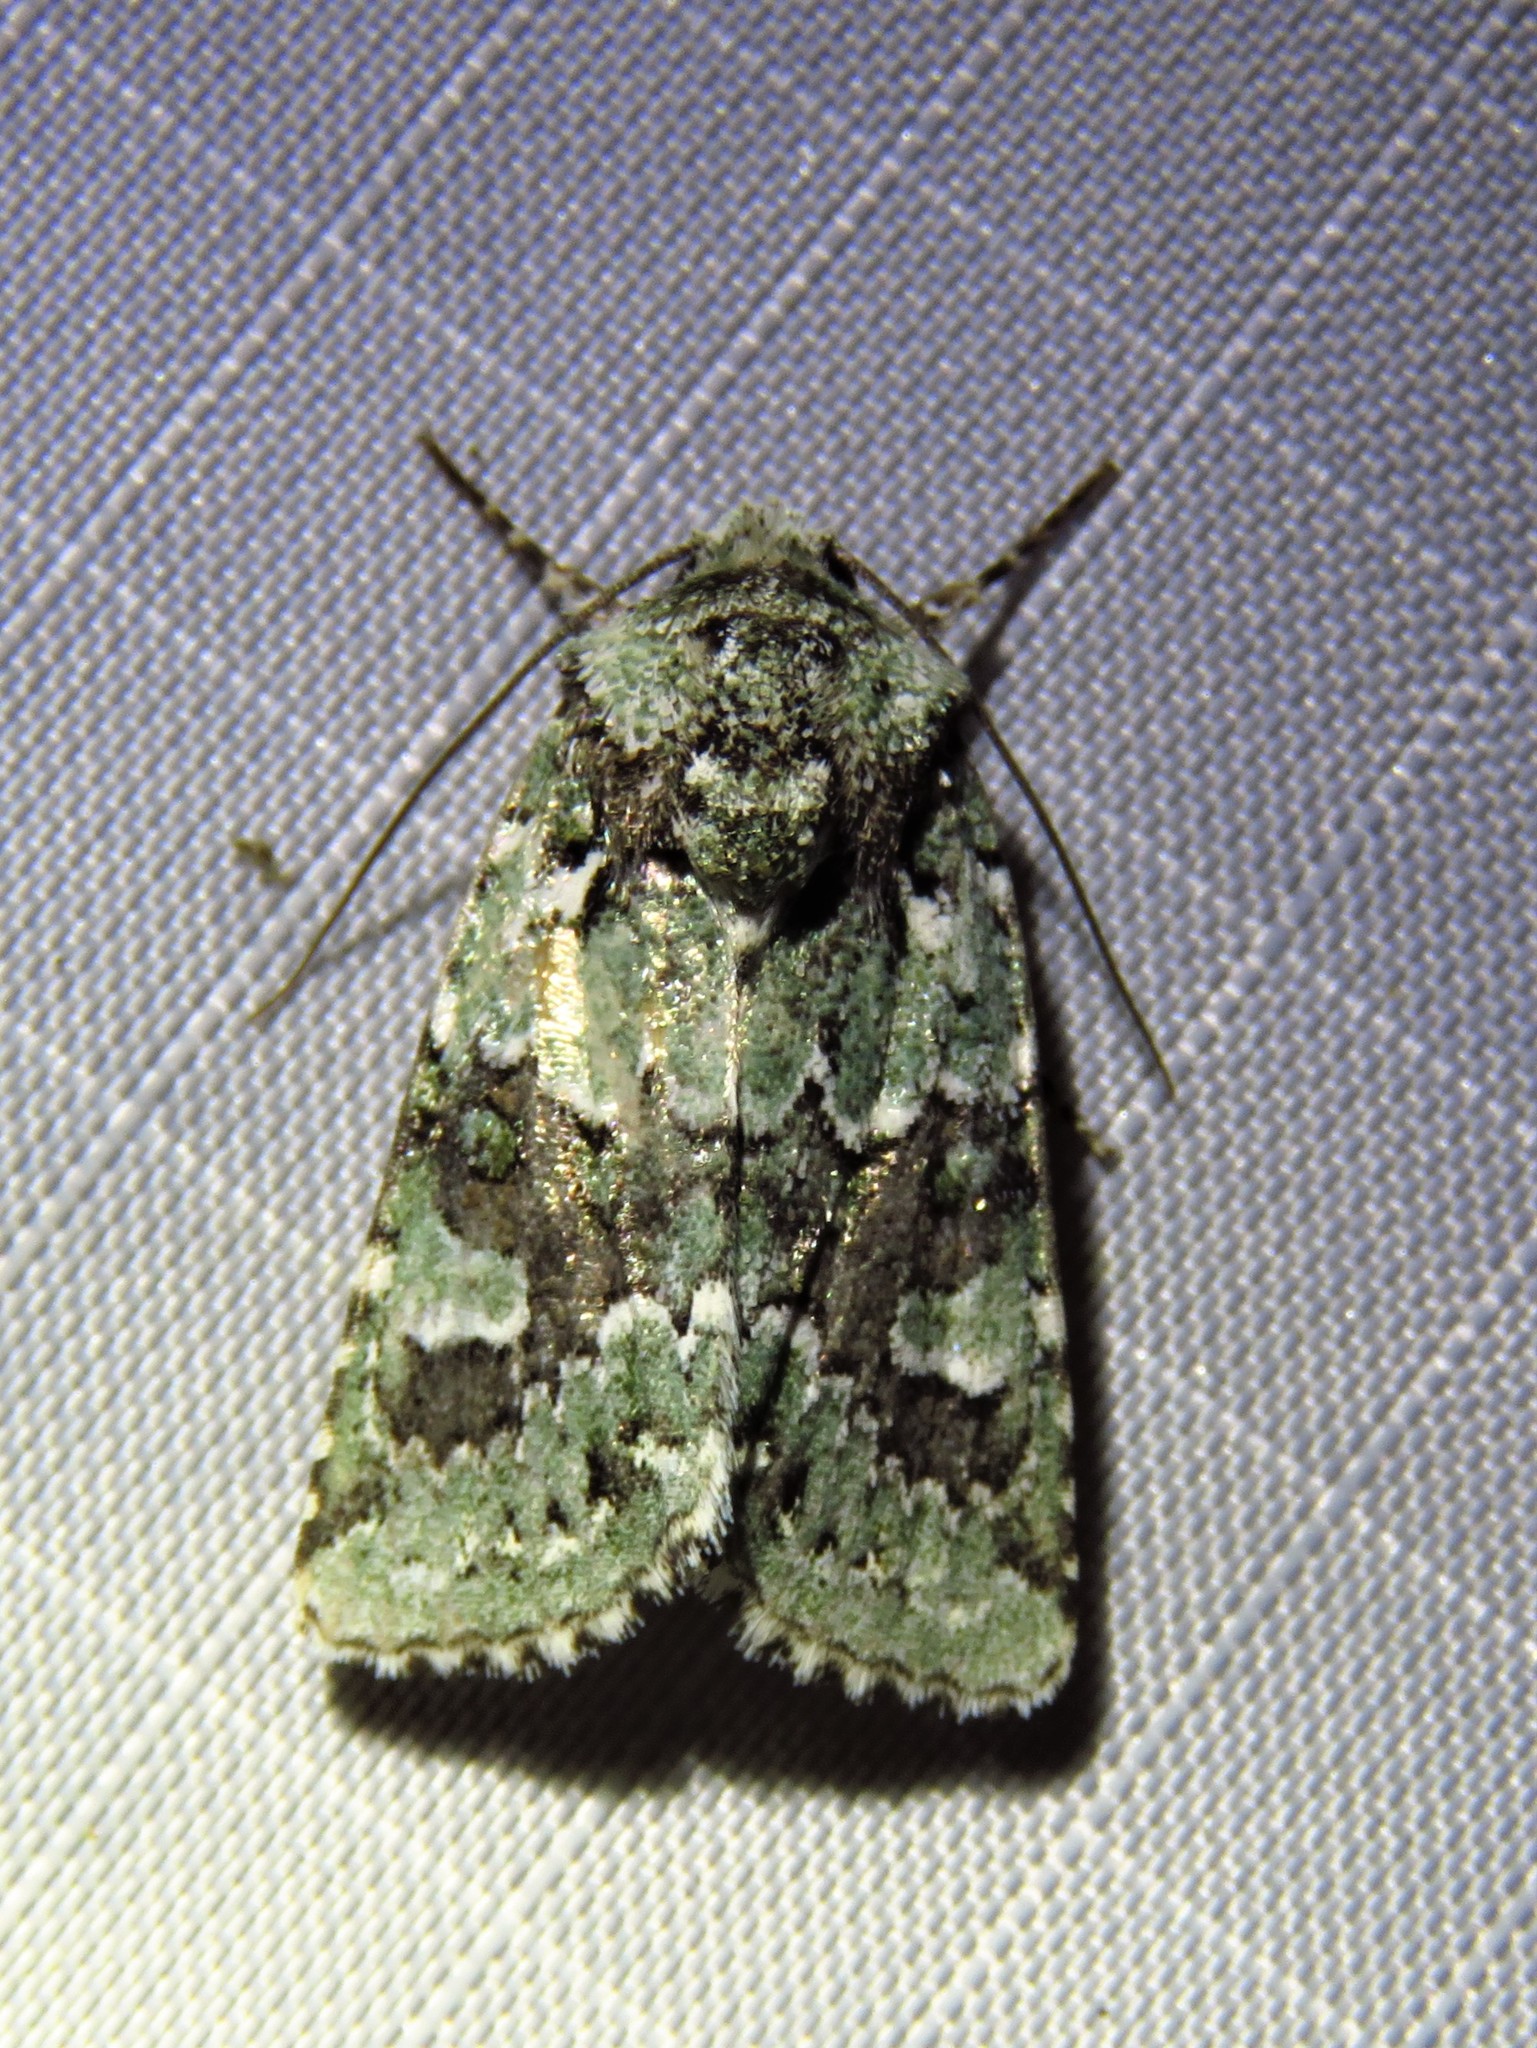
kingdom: Animalia
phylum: Arthropoda
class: Insecta
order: Lepidoptera
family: Noctuidae
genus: Lacinipolia
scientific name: Lacinipolia laudabilis
